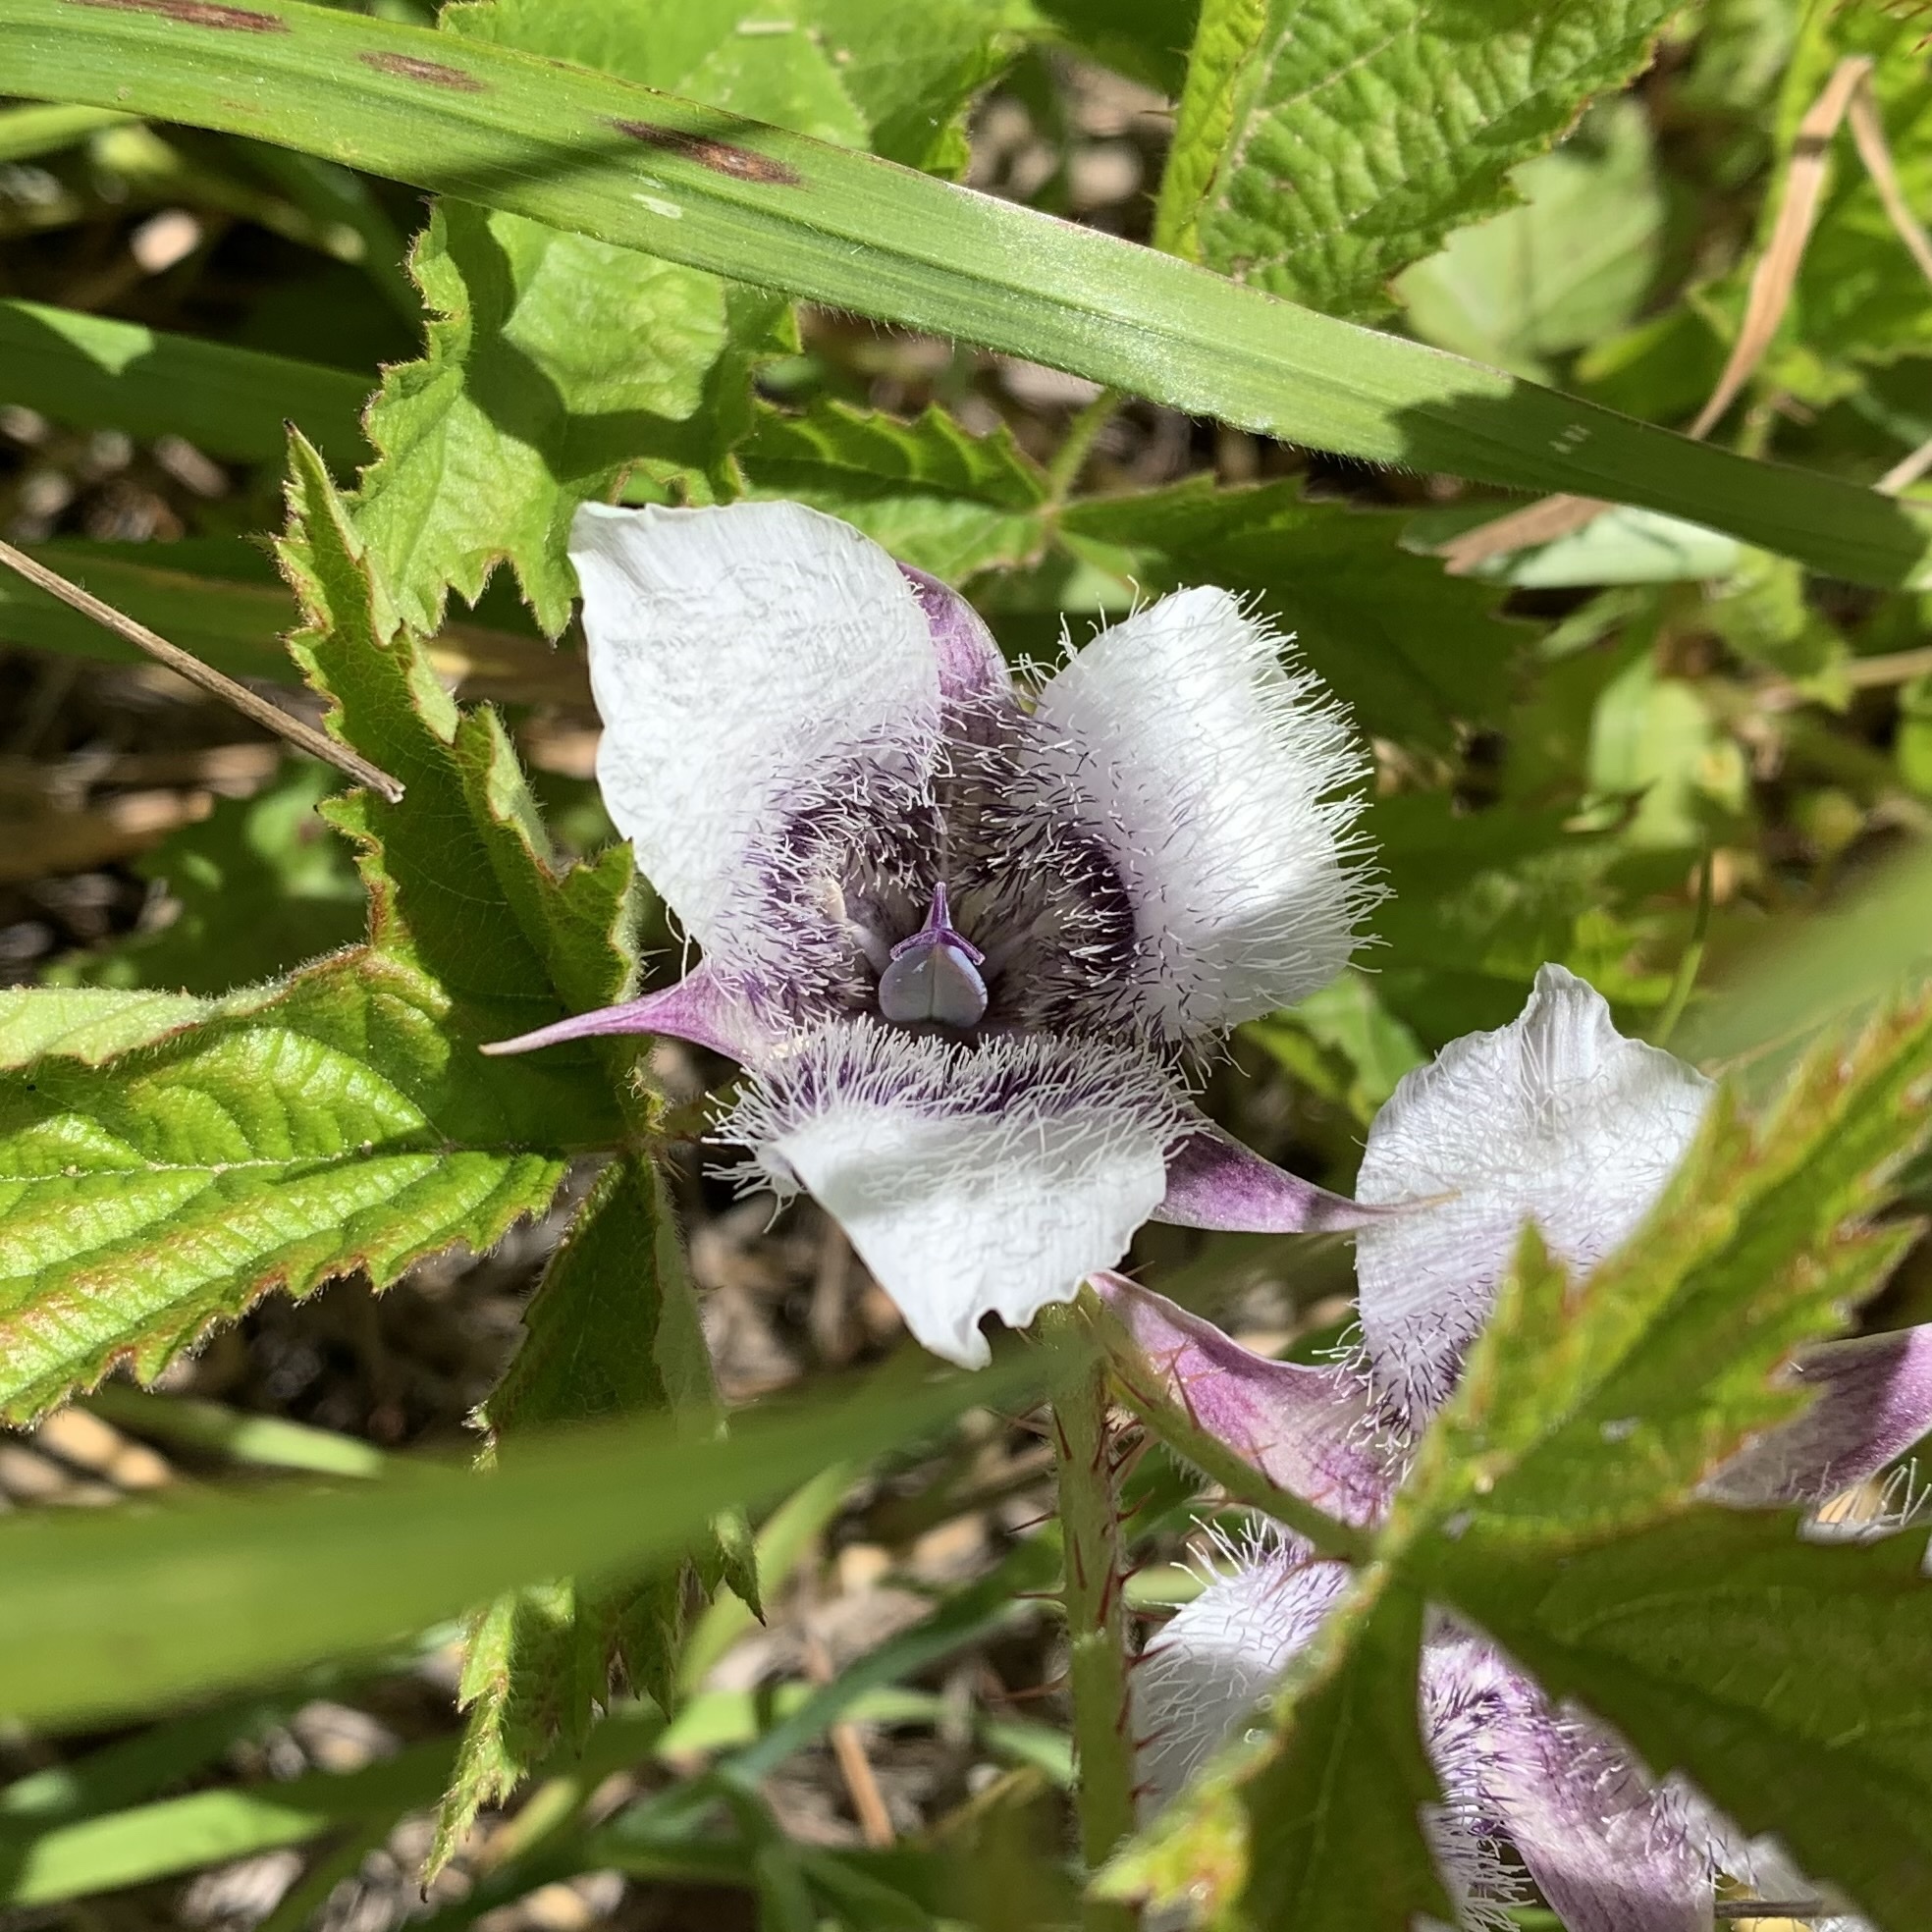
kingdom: Plantae
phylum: Tracheophyta
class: Liliopsida
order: Liliales
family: Liliaceae
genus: Calochortus
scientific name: Calochortus tolmiei
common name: Pussy-ears
